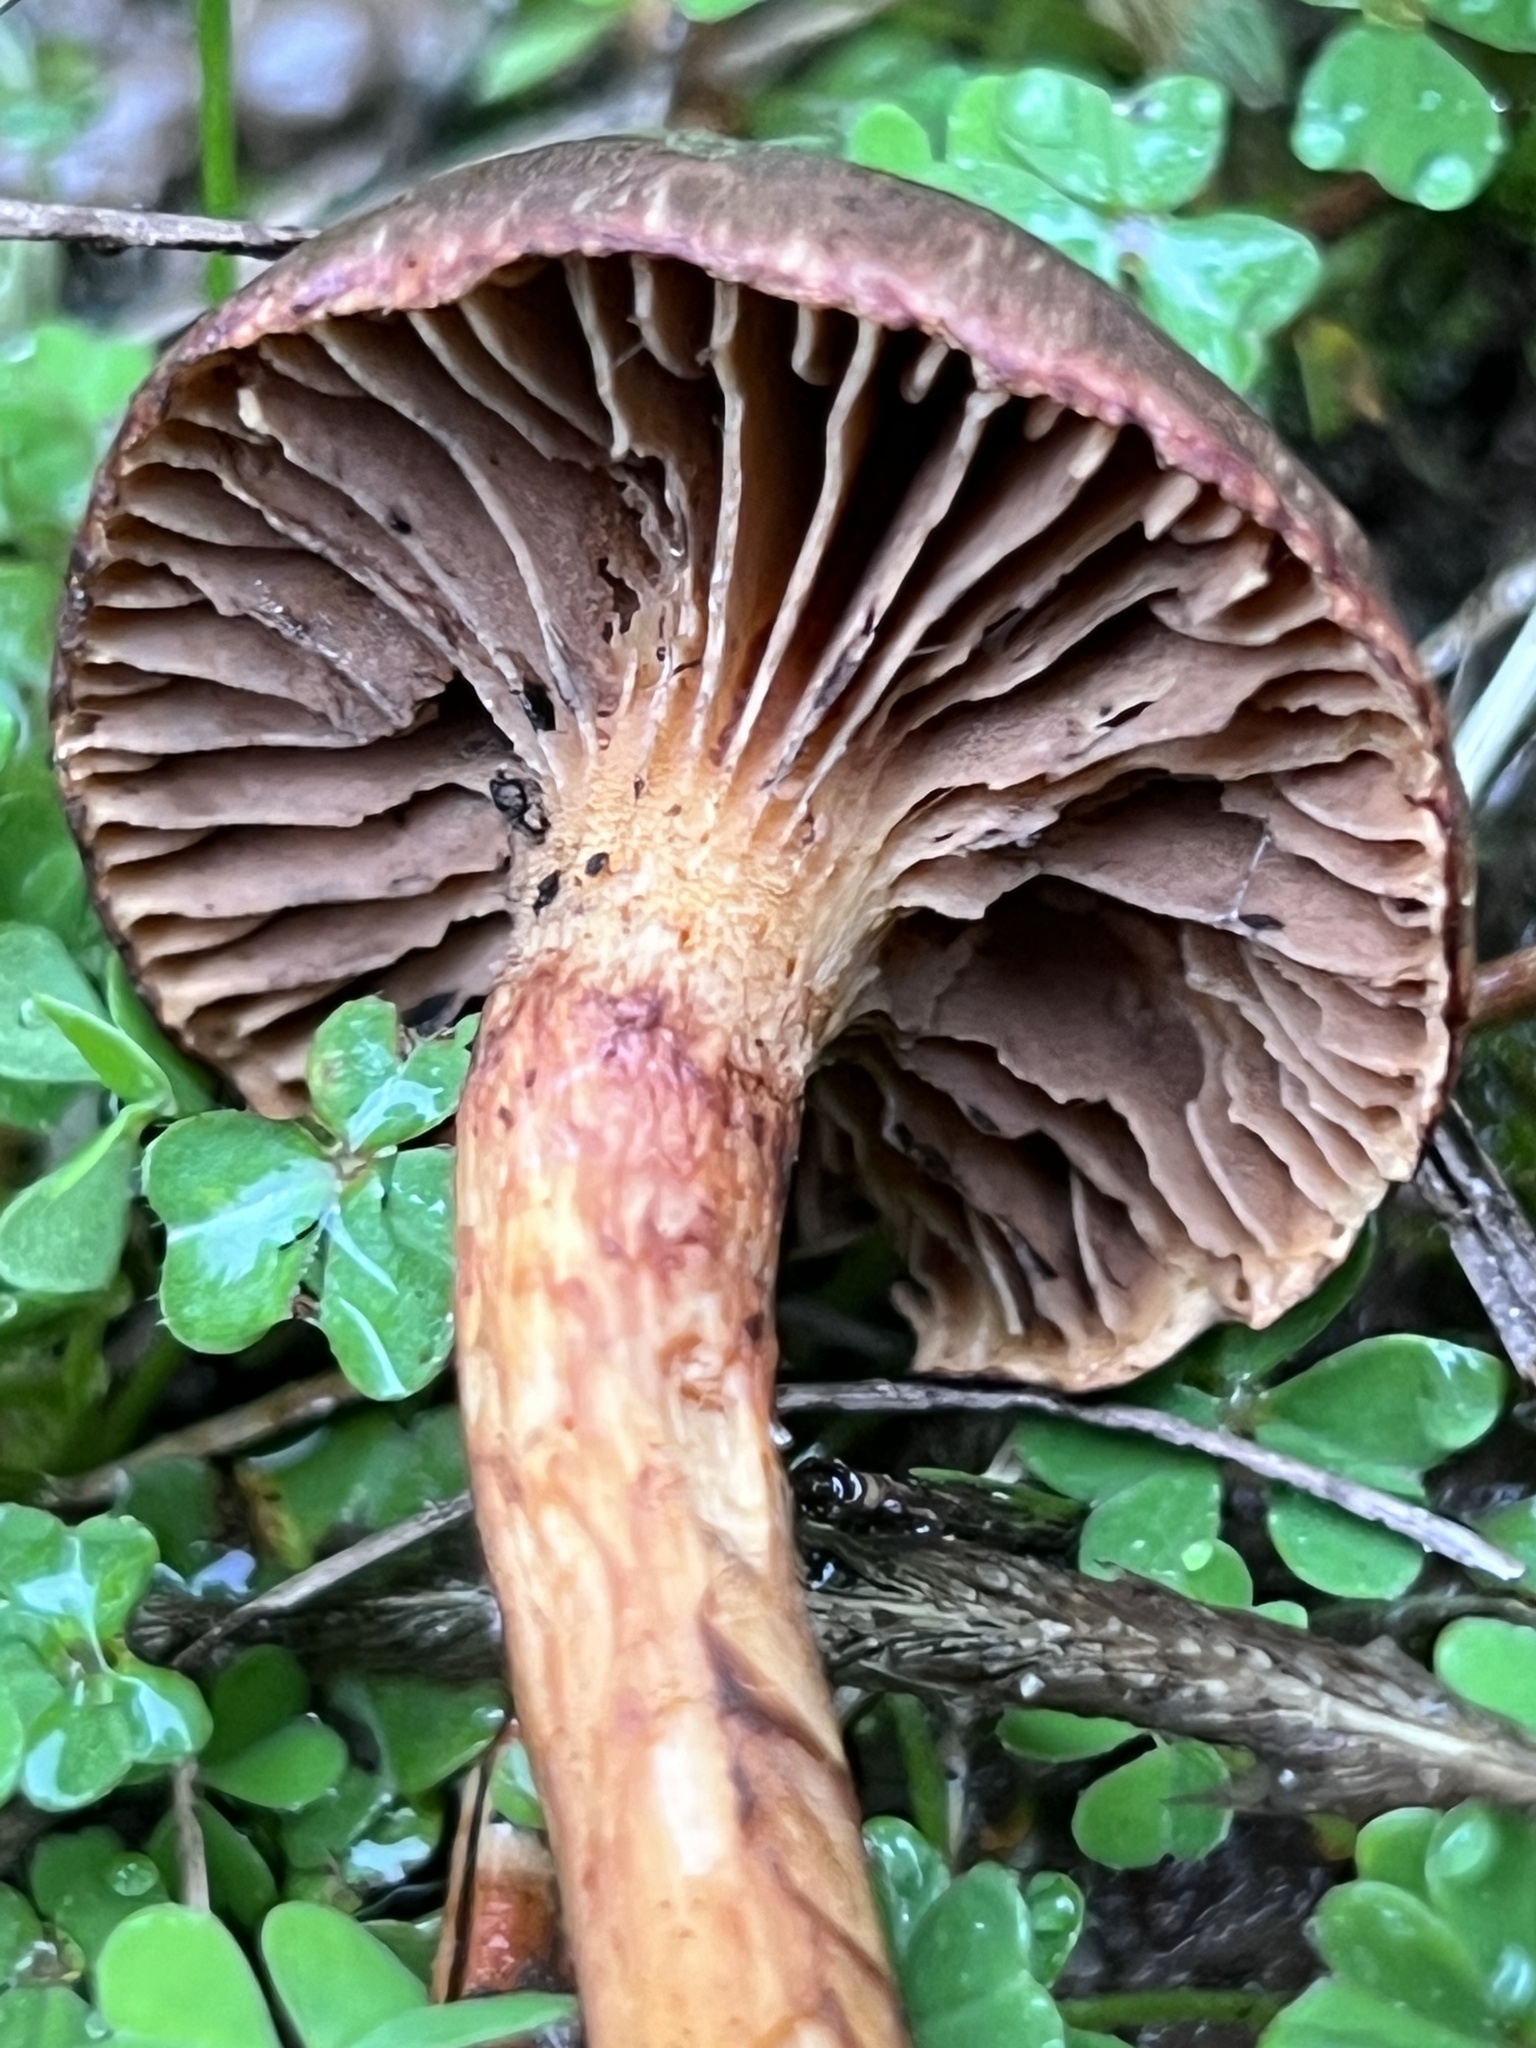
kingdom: Fungi
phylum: Basidiomycota
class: Agaricomycetes
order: Boletales
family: Gomphidiaceae
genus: Chroogomphus
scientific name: Chroogomphus vinicolor
